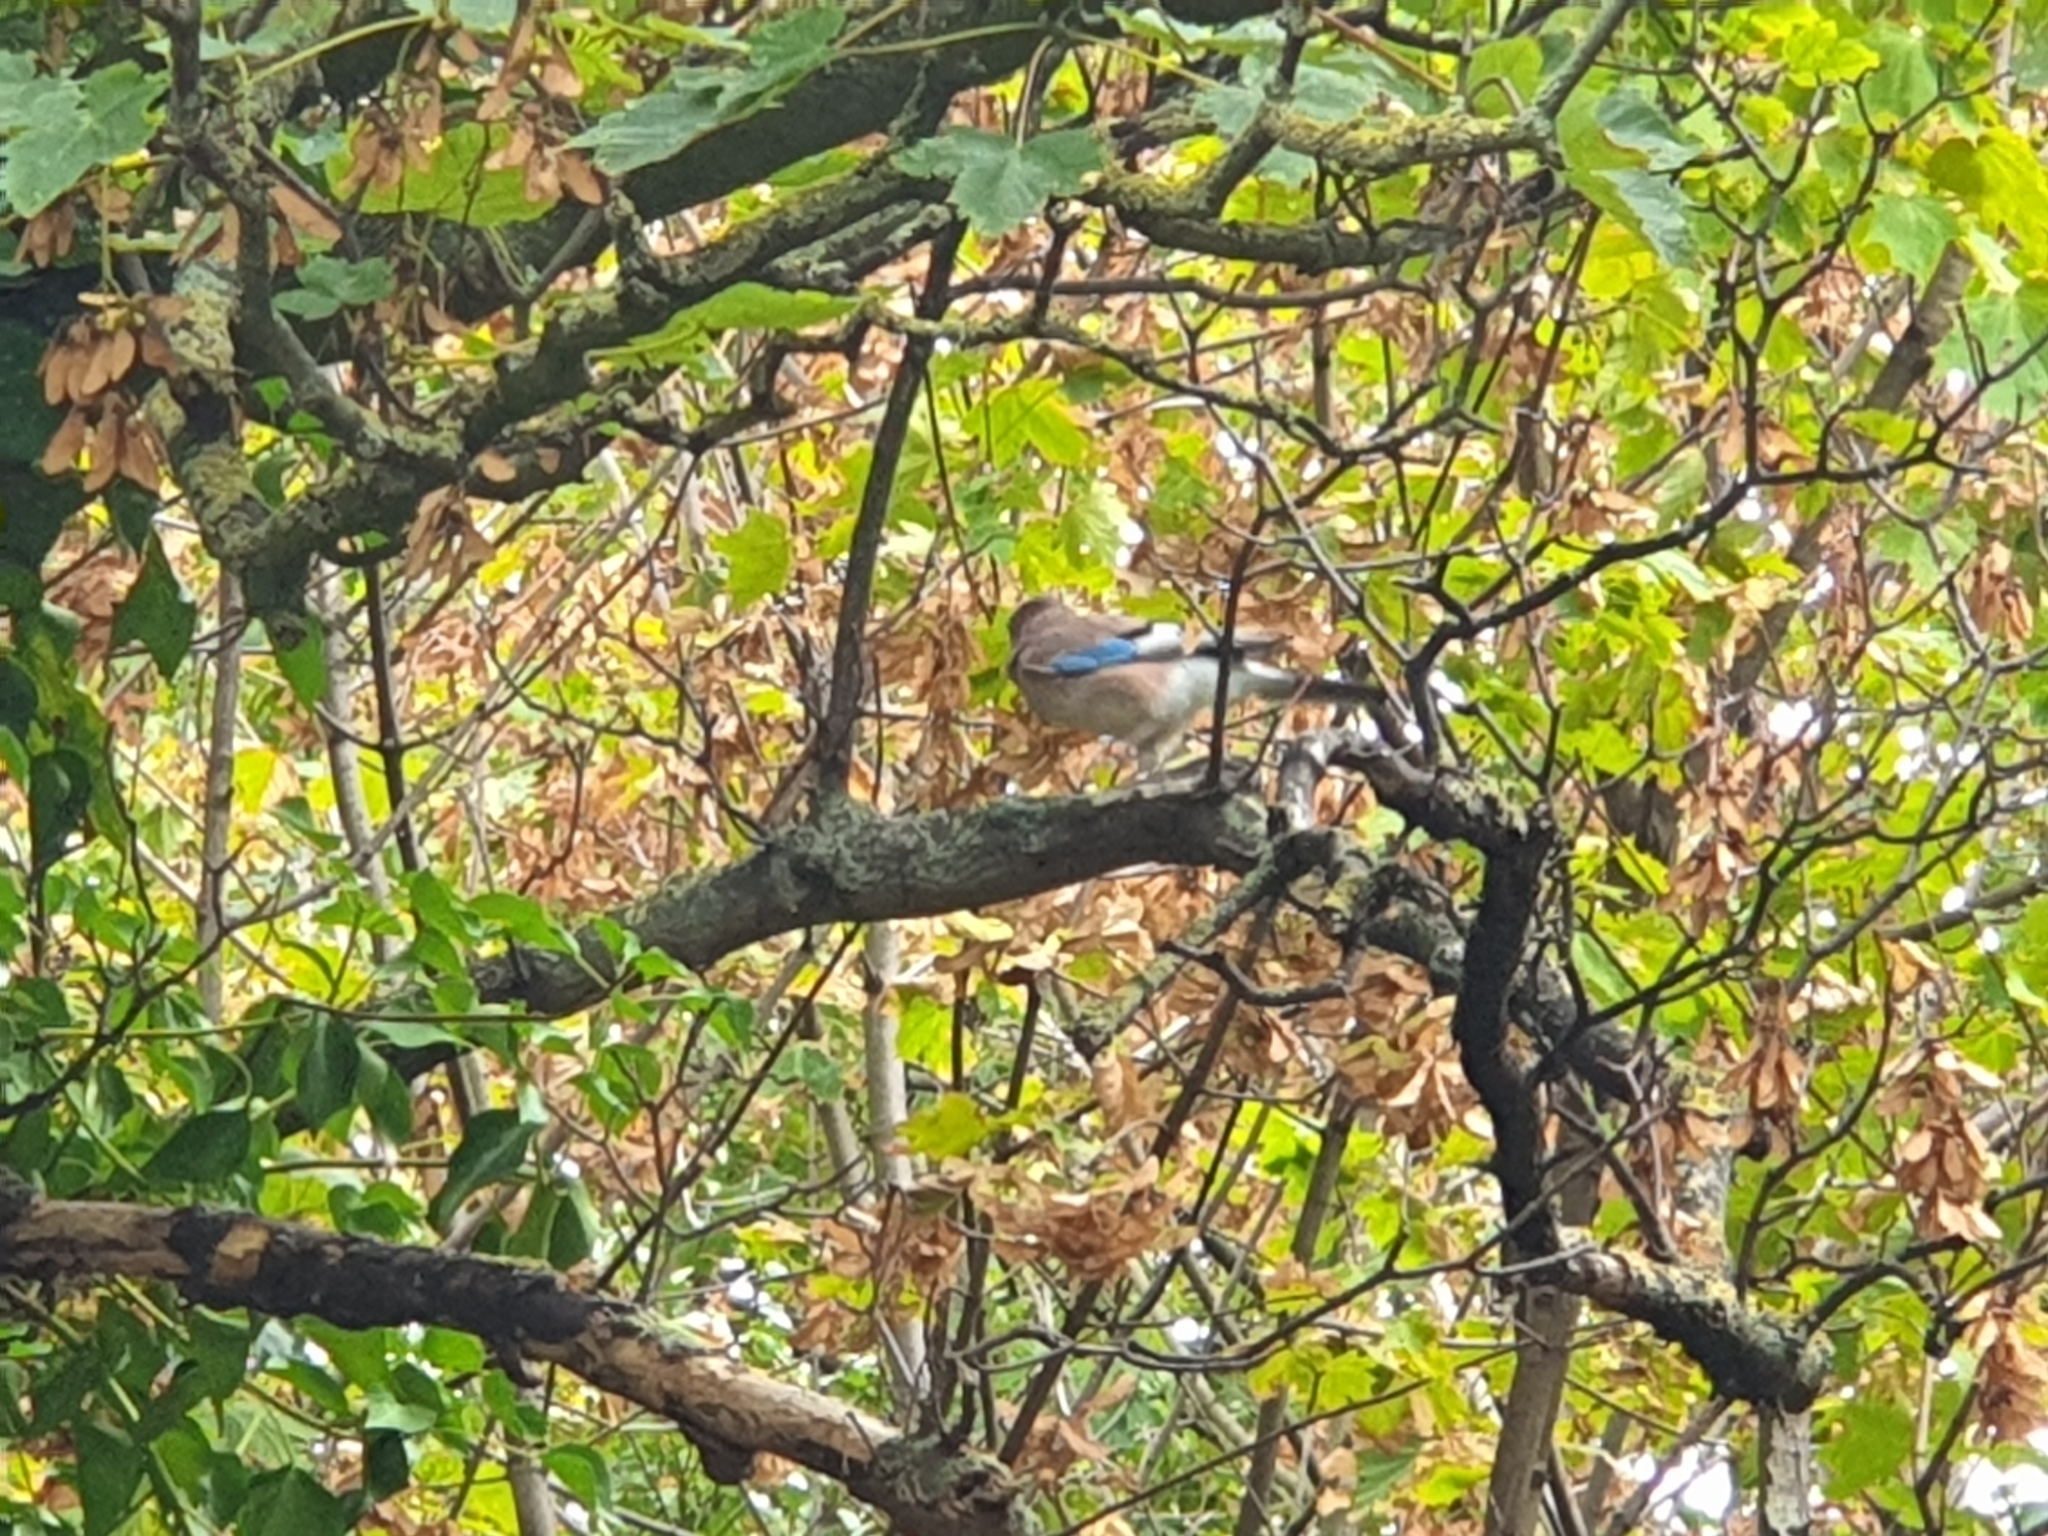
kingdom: Animalia
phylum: Chordata
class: Aves
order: Passeriformes
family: Corvidae
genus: Garrulus
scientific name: Garrulus glandarius
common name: Eurasian jay
